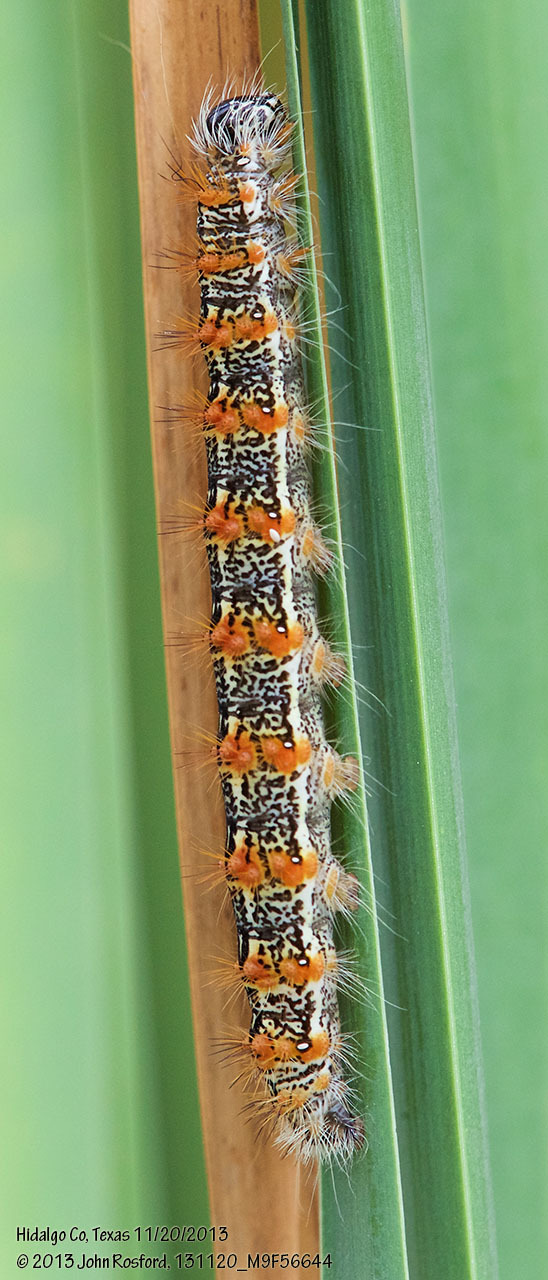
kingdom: Animalia
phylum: Arthropoda
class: Insecta
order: Lepidoptera
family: Noctuidae
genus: Acronicta
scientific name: Acronicta insularis
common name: Henry's marsh moth
